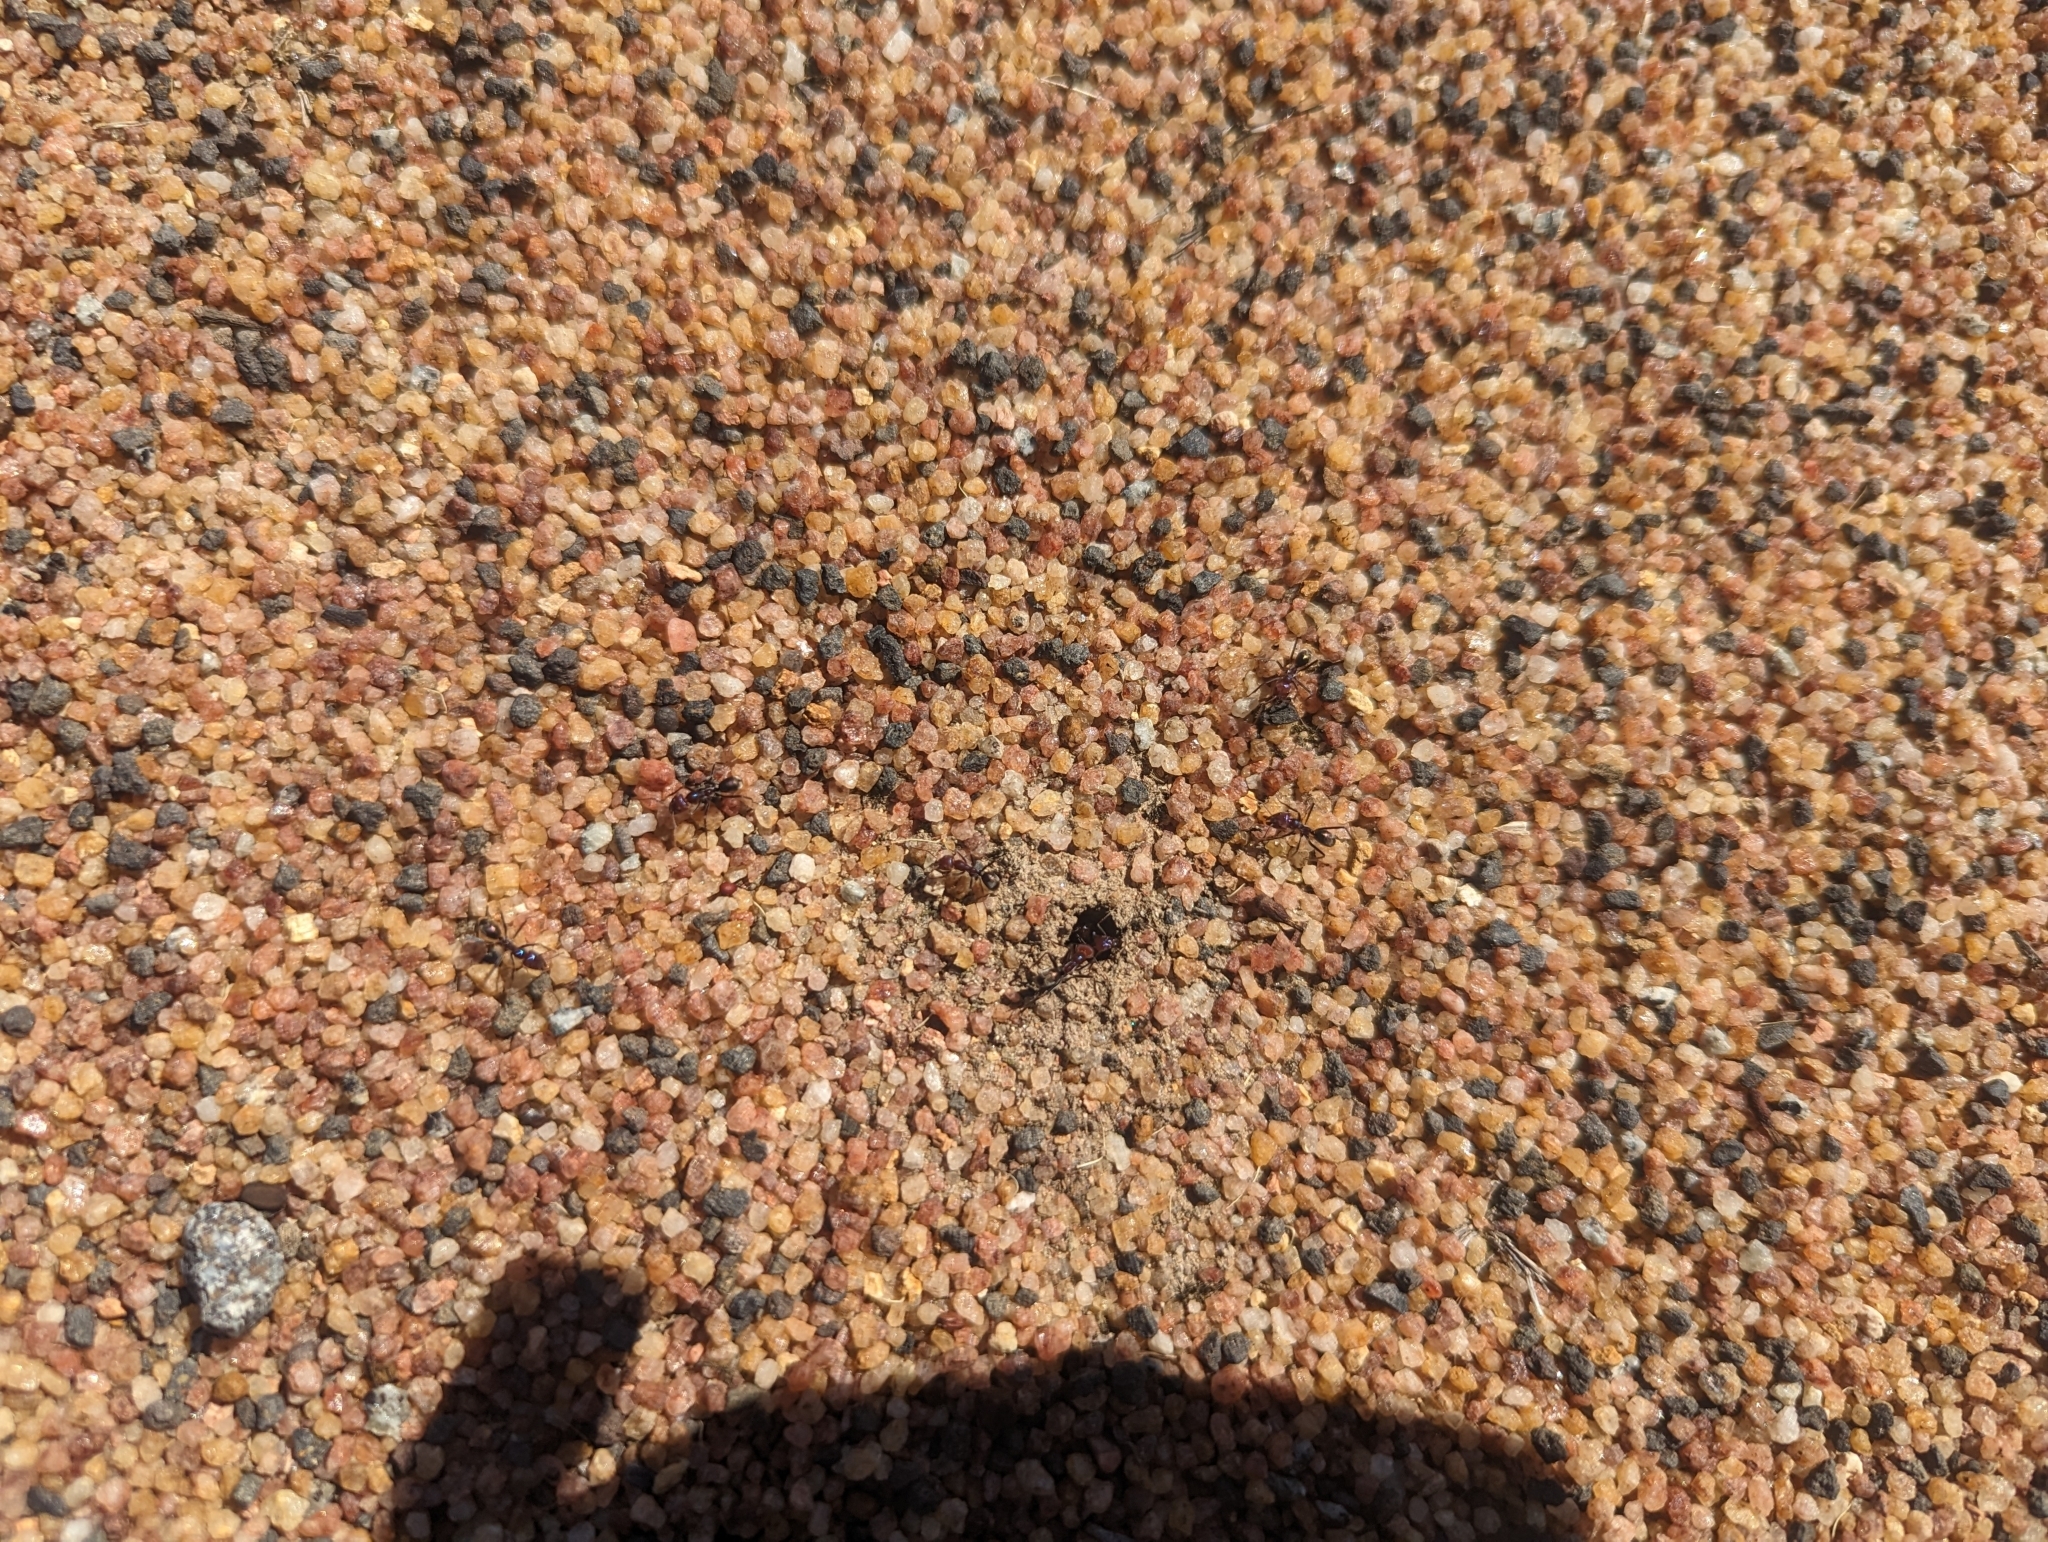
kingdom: Animalia
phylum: Arthropoda
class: Insecta
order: Hymenoptera
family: Formicidae
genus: Iridomyrmex
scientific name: Iridomyrmex purpureus
